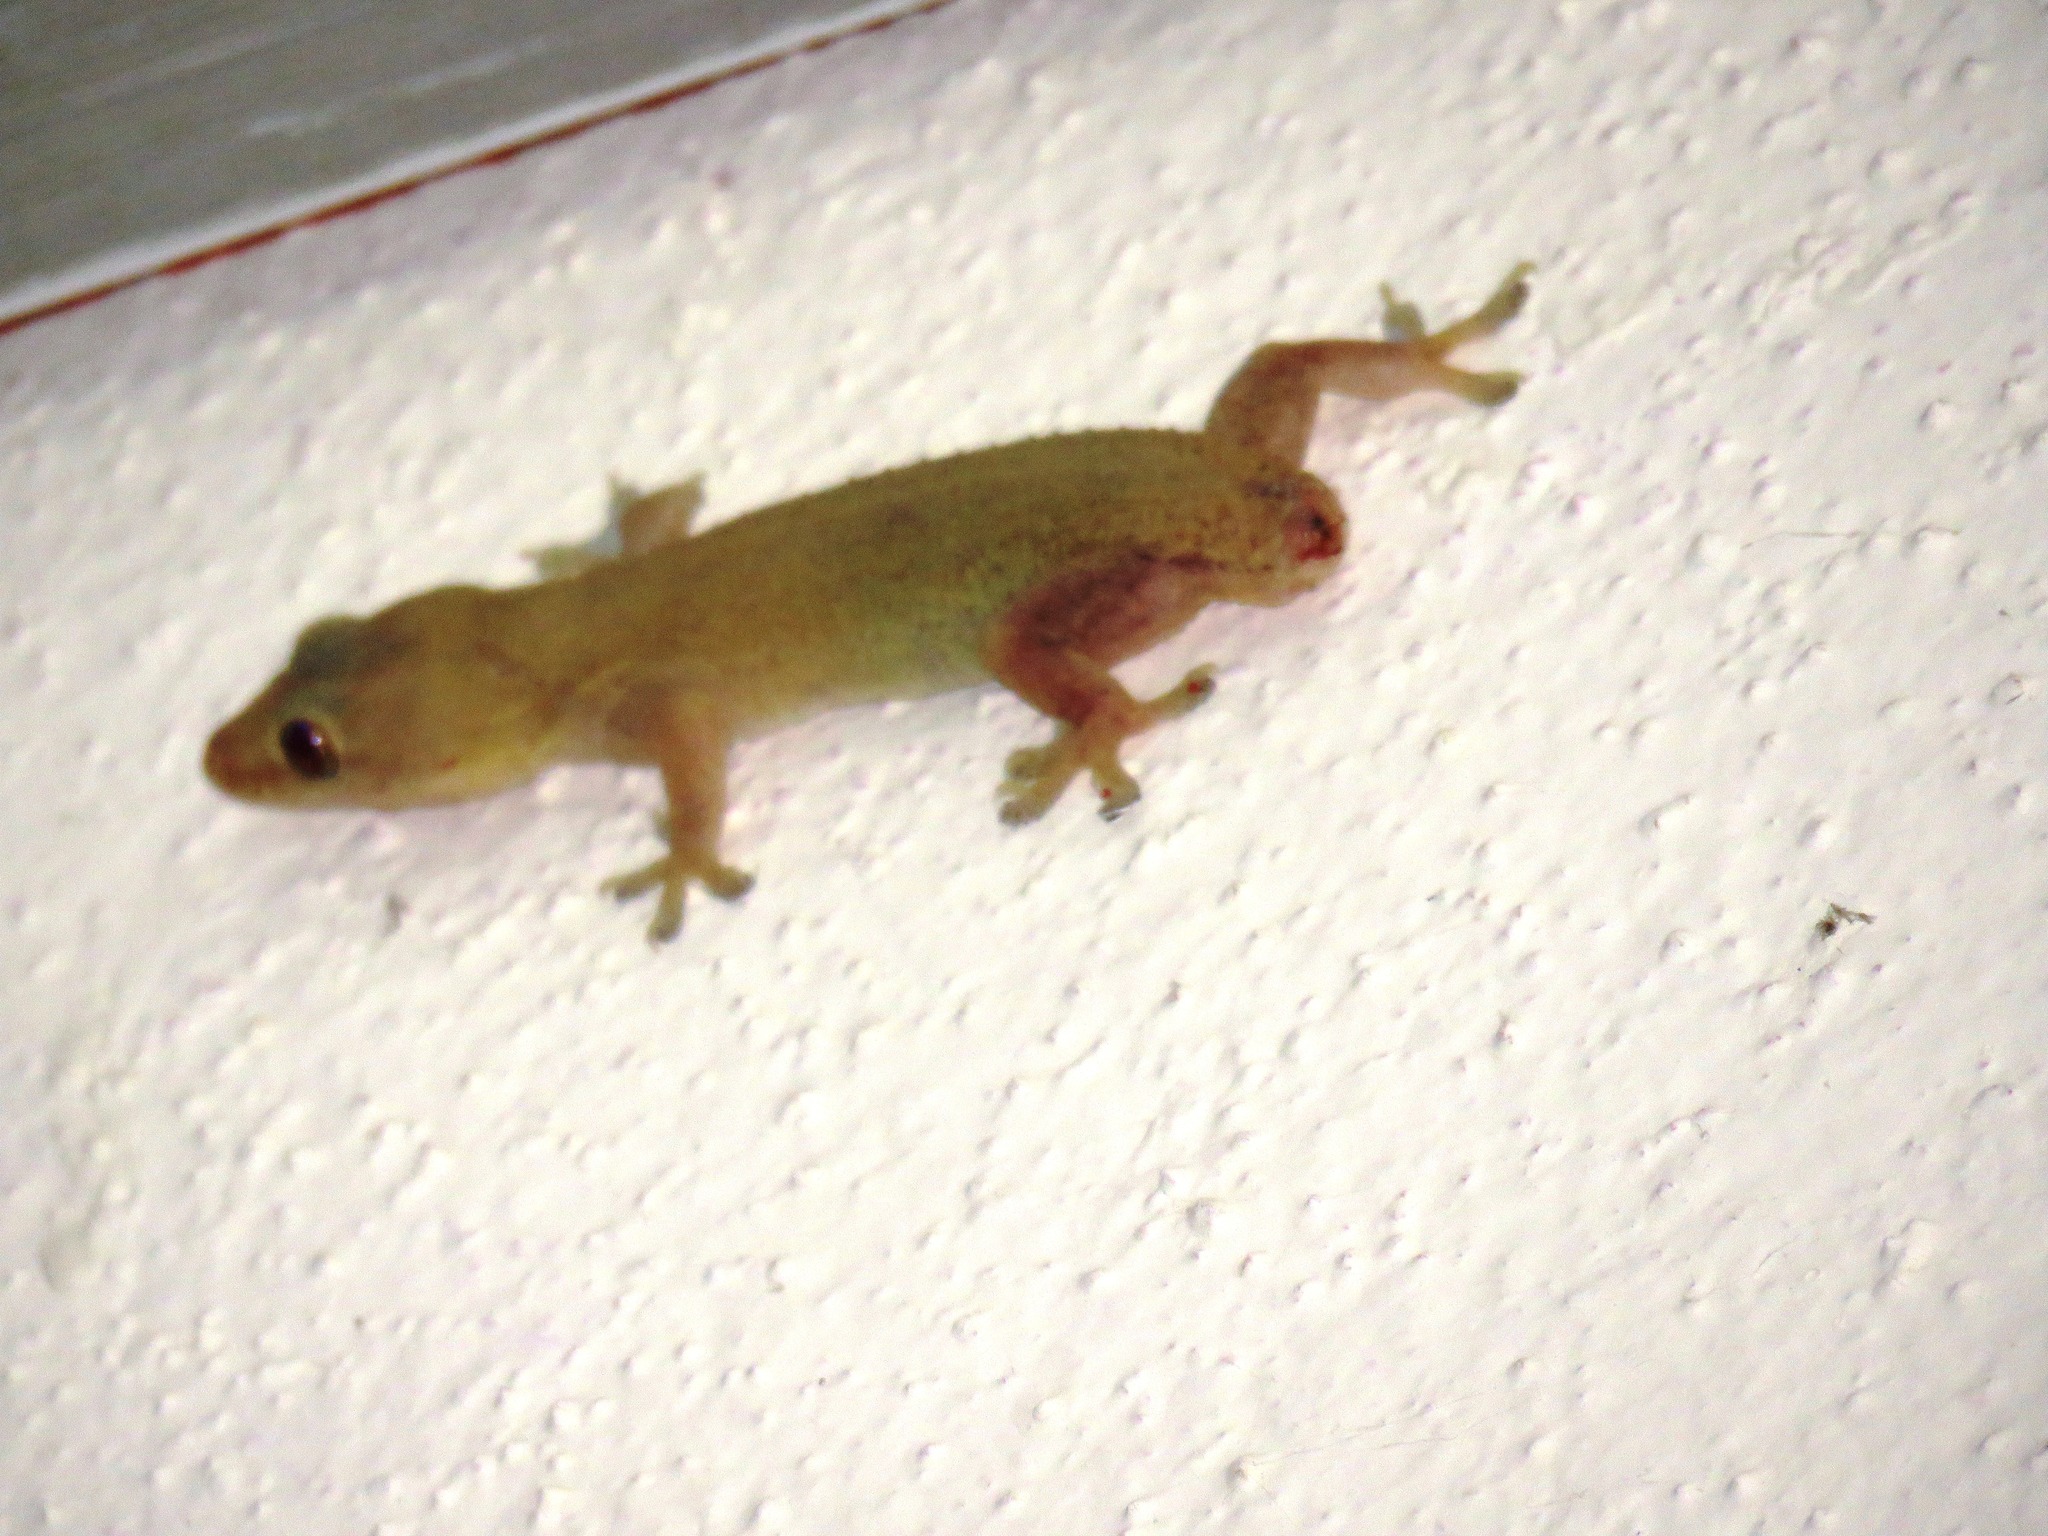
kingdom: Animalia
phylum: Chordata
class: Squamata
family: Gekkonidae
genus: Hemidactylus
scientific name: Hemidactylus frenatus
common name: Common house gecko
